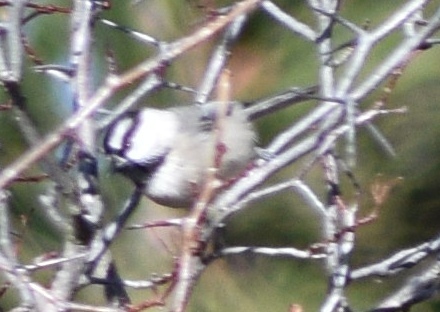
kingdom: Animalia
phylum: Chordata
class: Aves
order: Passeriformes
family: Paridae
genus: Poecile
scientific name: Poecile gambeli
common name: Mountain chickadee
